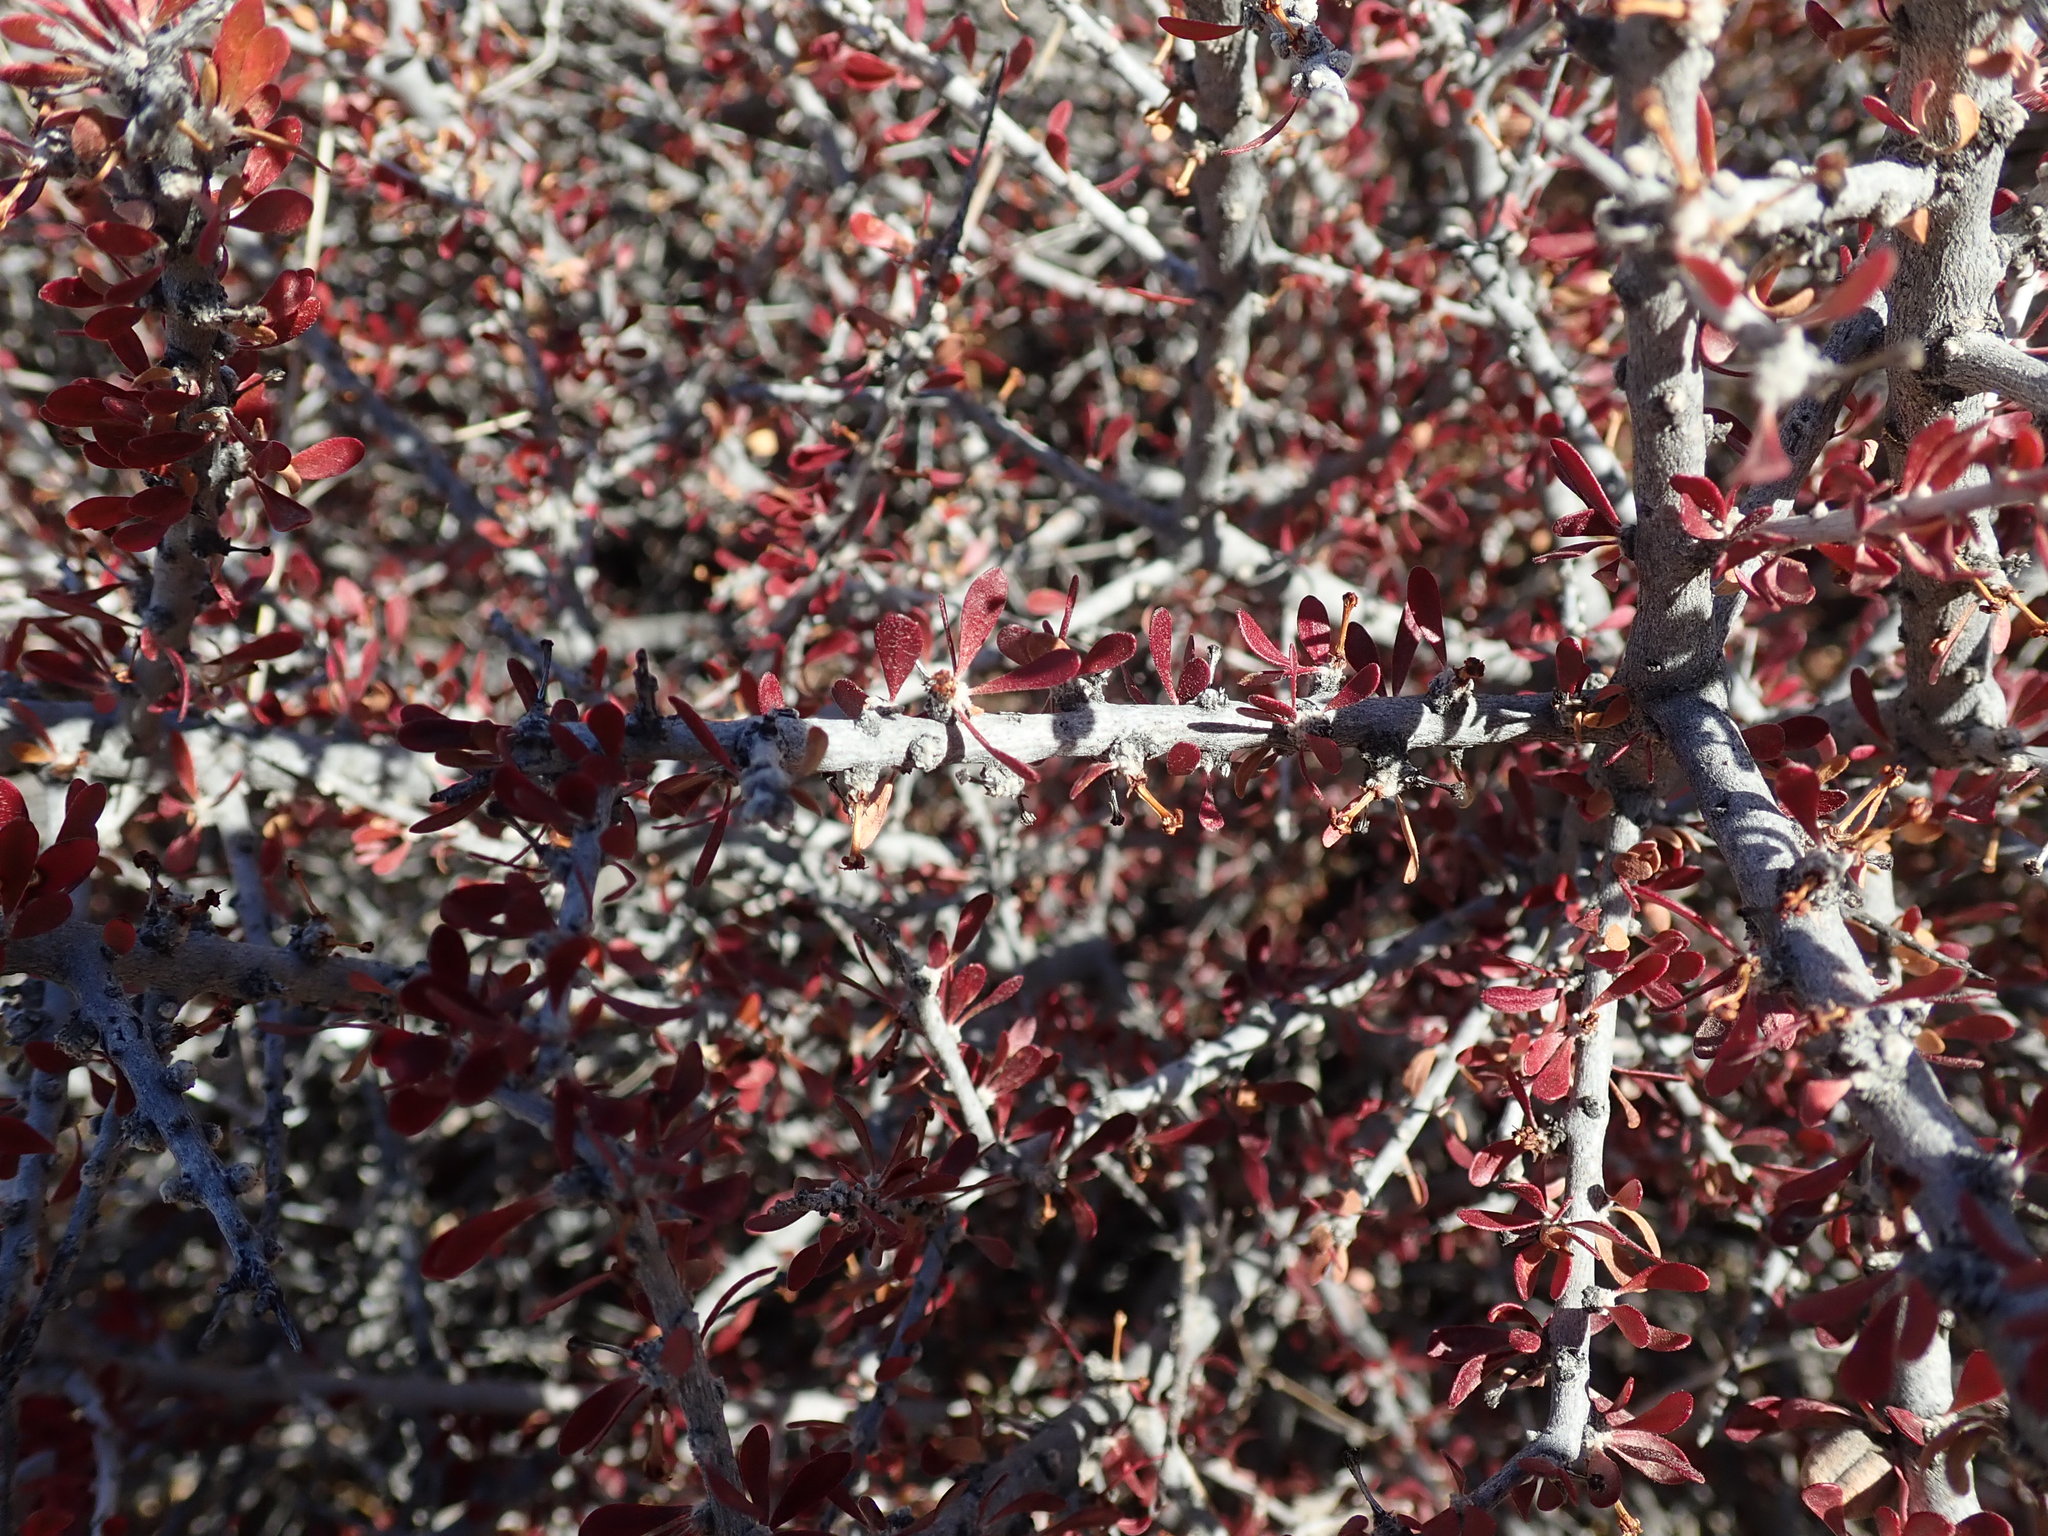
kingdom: Plantae
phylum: Tracheophyta
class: Magnoliopsida
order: Malpighiales
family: Picrodendraceae
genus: Tetracoccus
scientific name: Tetracoccus hallii
